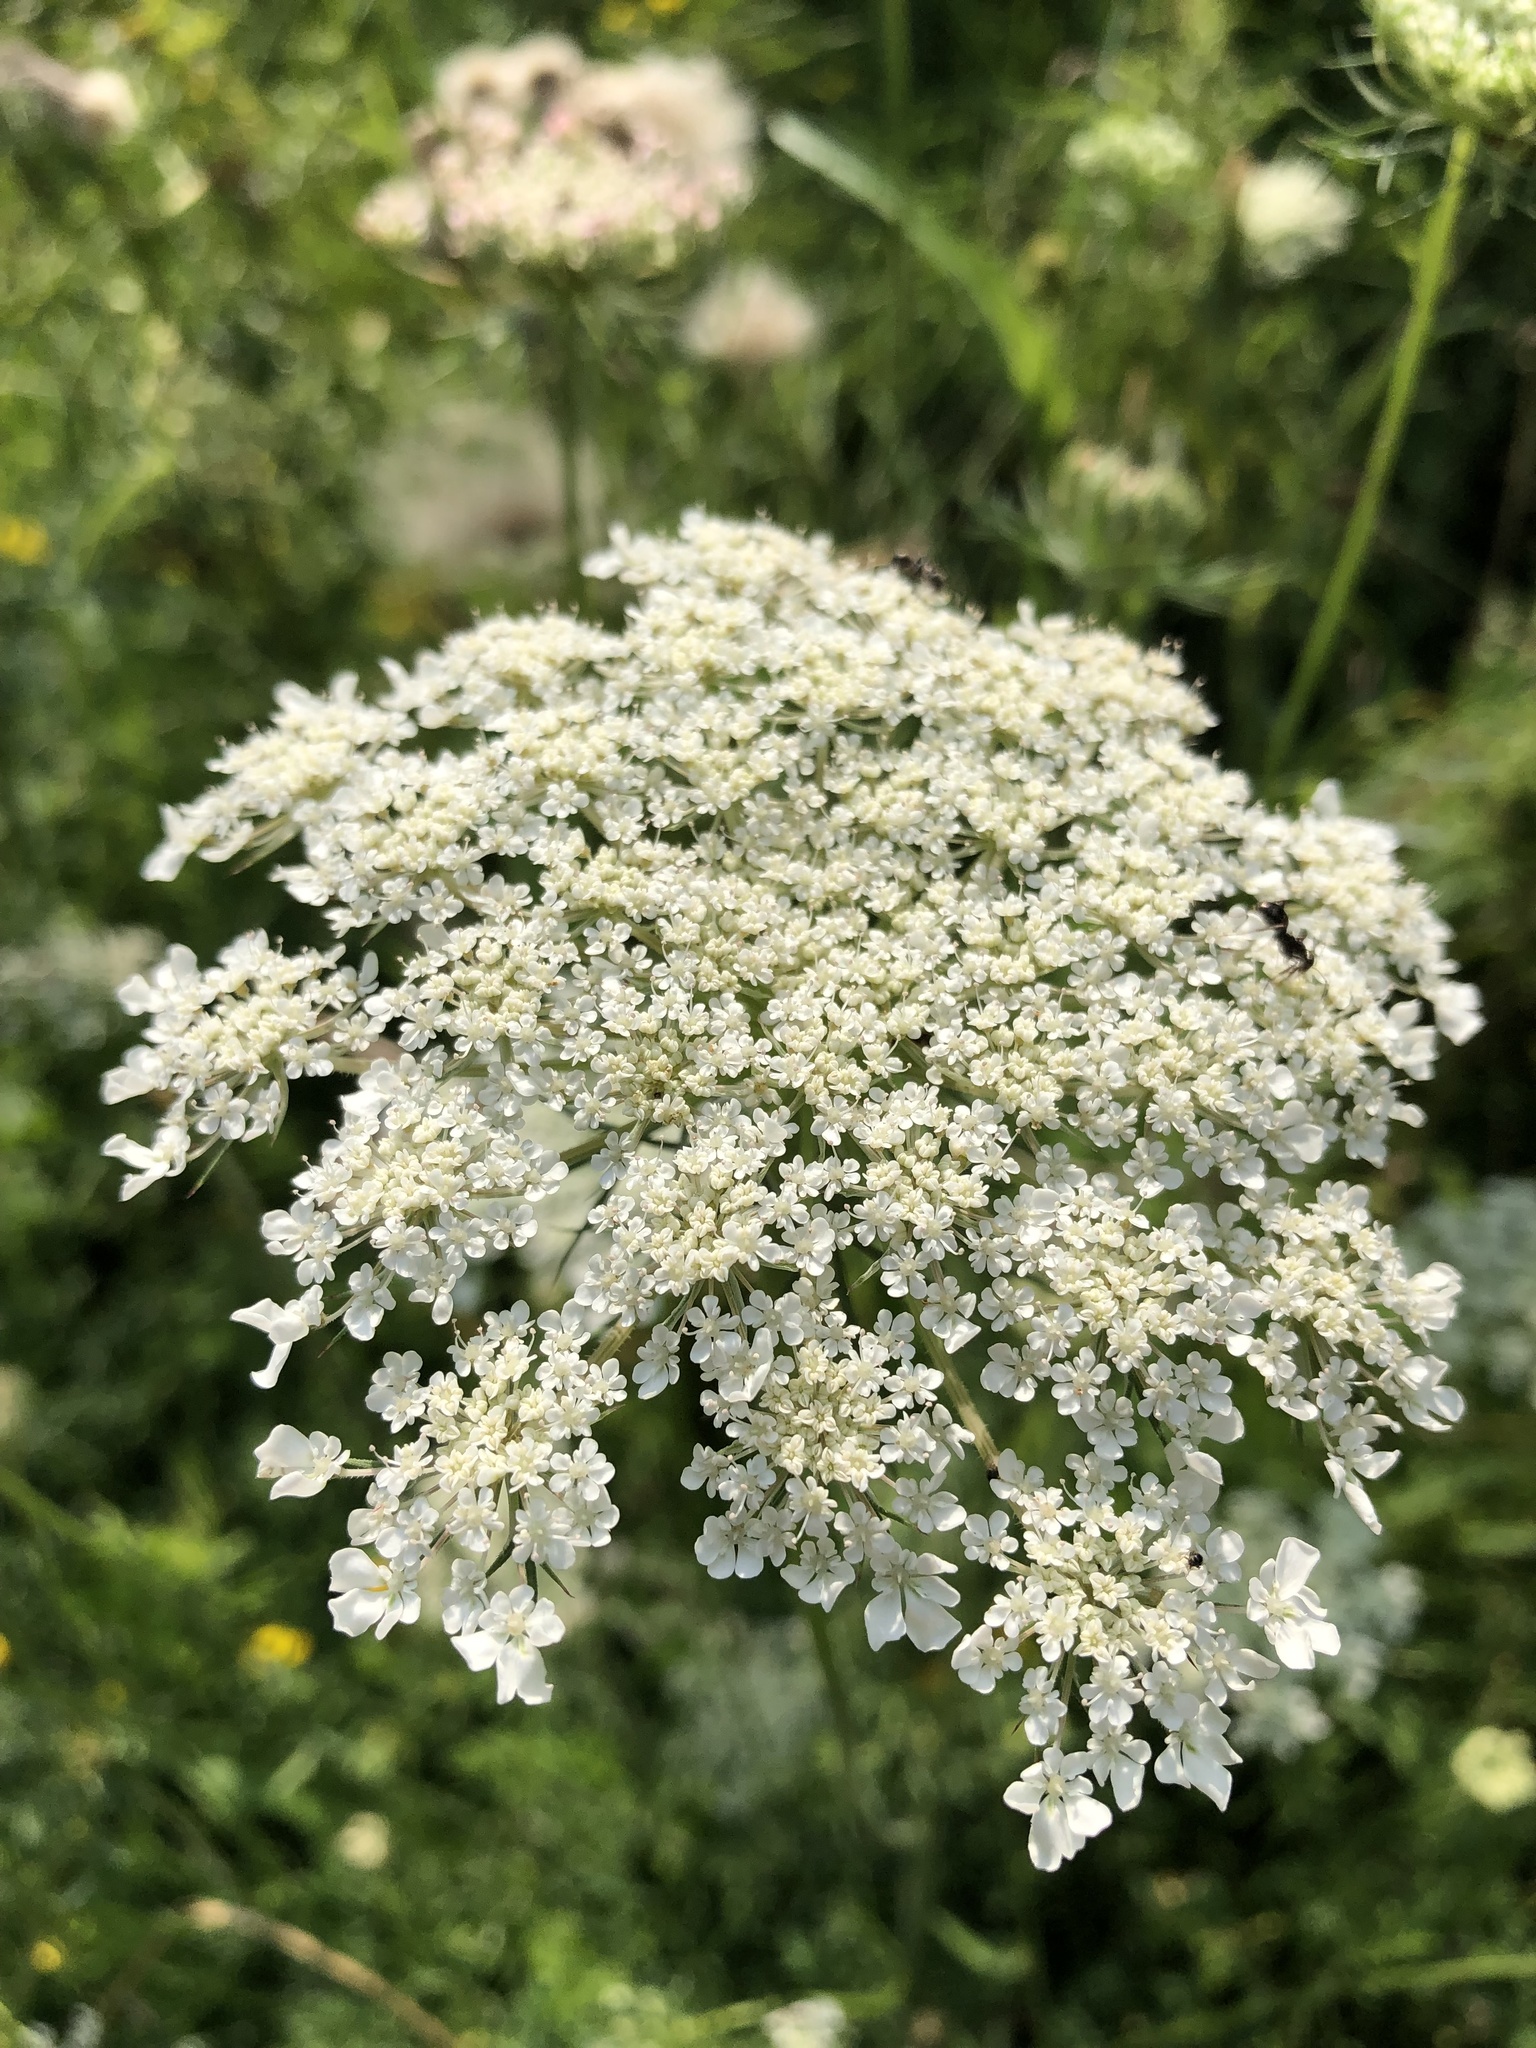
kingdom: Plantae
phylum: Tracheophyta
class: Magnoliopsida
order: Apiales
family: Apiaceae
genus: Daucus
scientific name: Daucus carota
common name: Wild carrot
